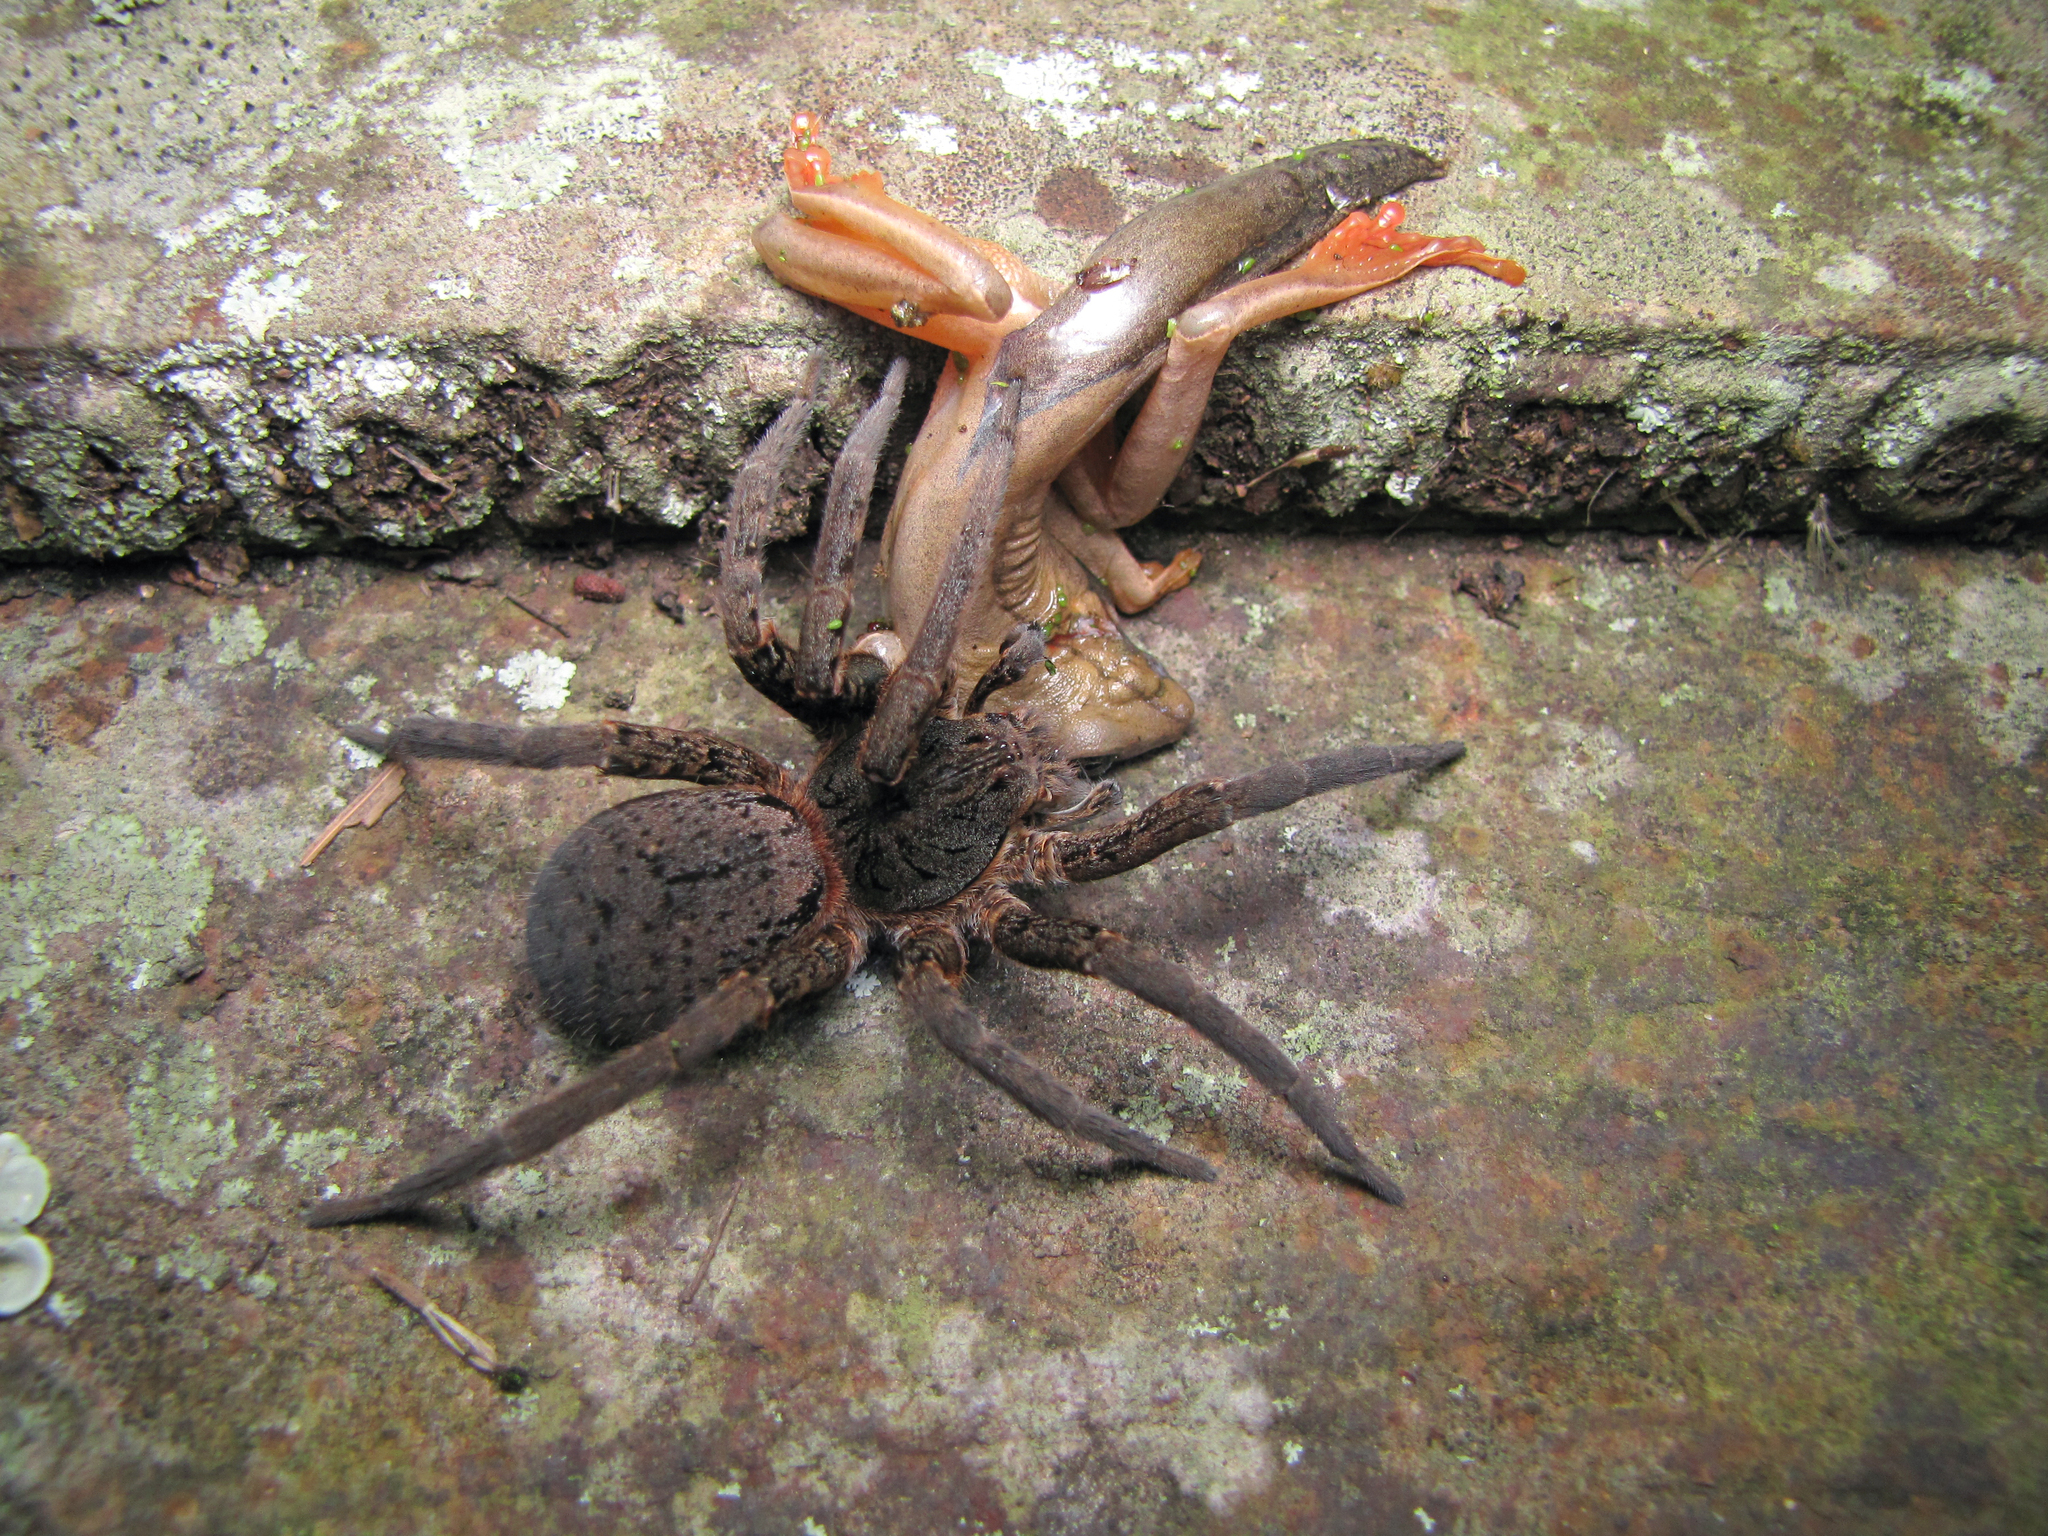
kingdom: Animalia
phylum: Arthropoda
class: Arachnida
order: Araneae
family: Ctenidae
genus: Ancylometes
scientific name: Ancylometes concolor
